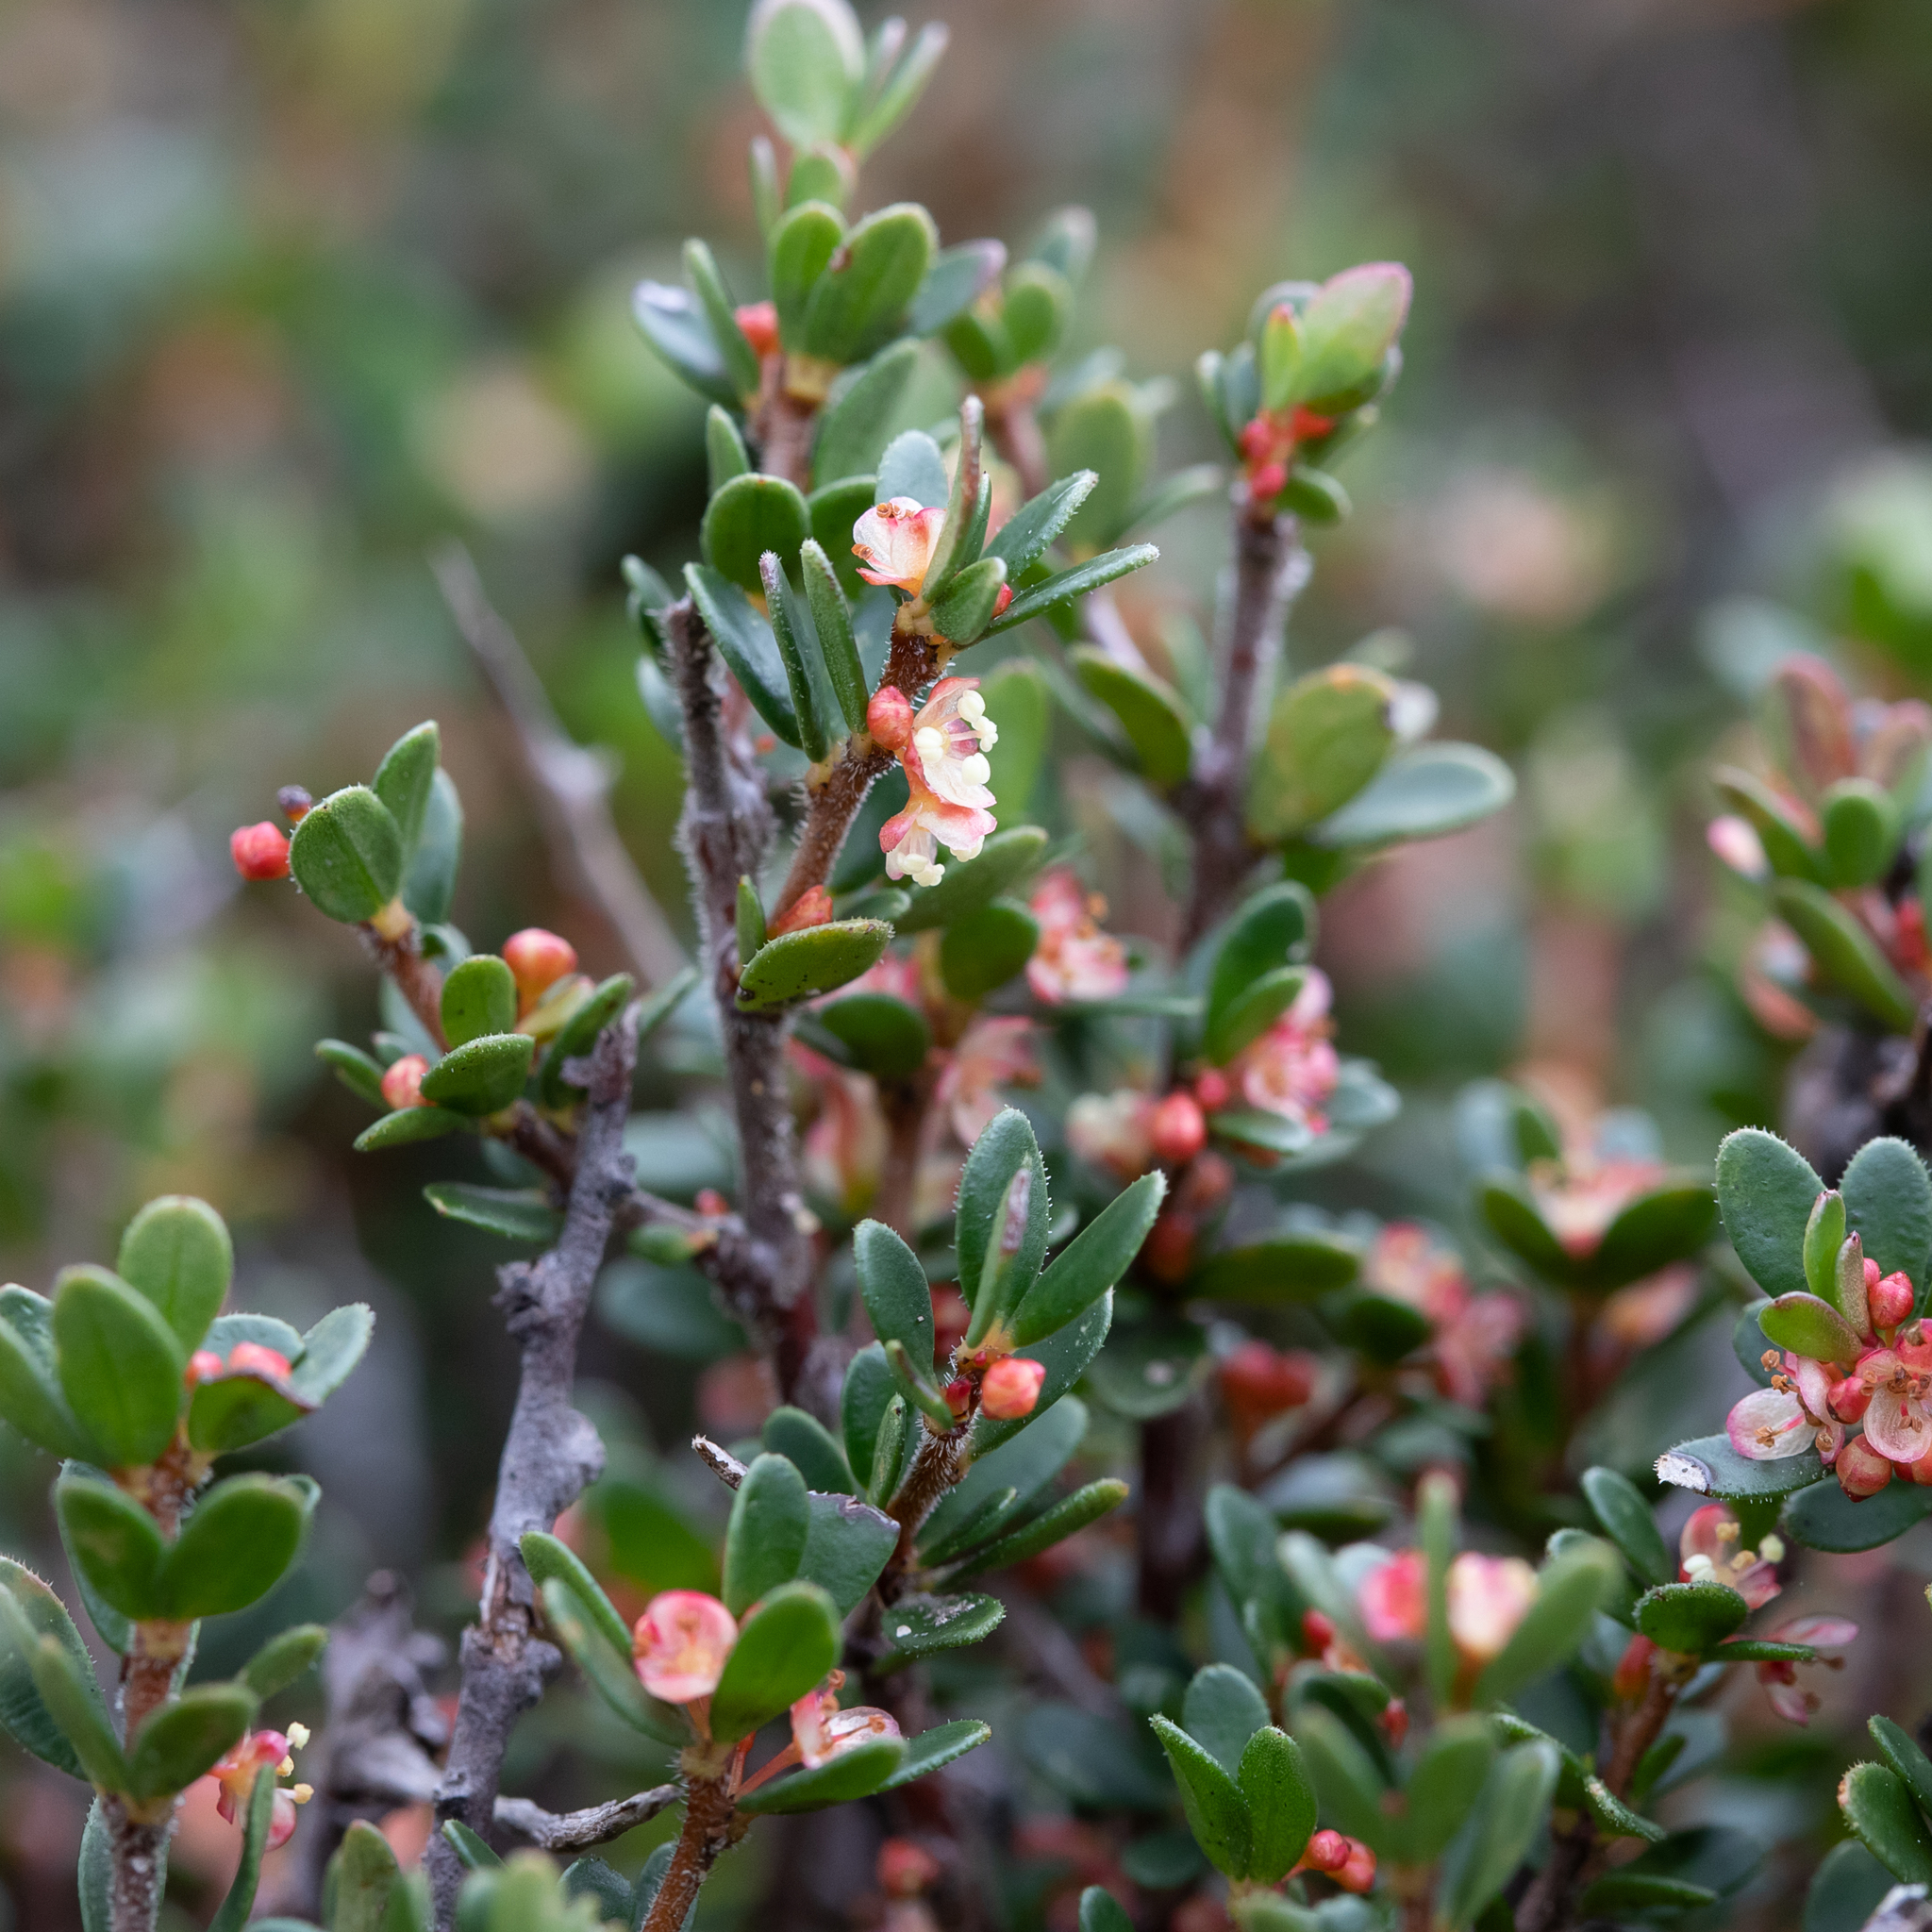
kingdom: Plantae
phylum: Tracheophyta
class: Magnoliopsida
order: Malpighiales
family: Picrodendraceae
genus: Micrantheum
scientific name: Micrantheum demissum
